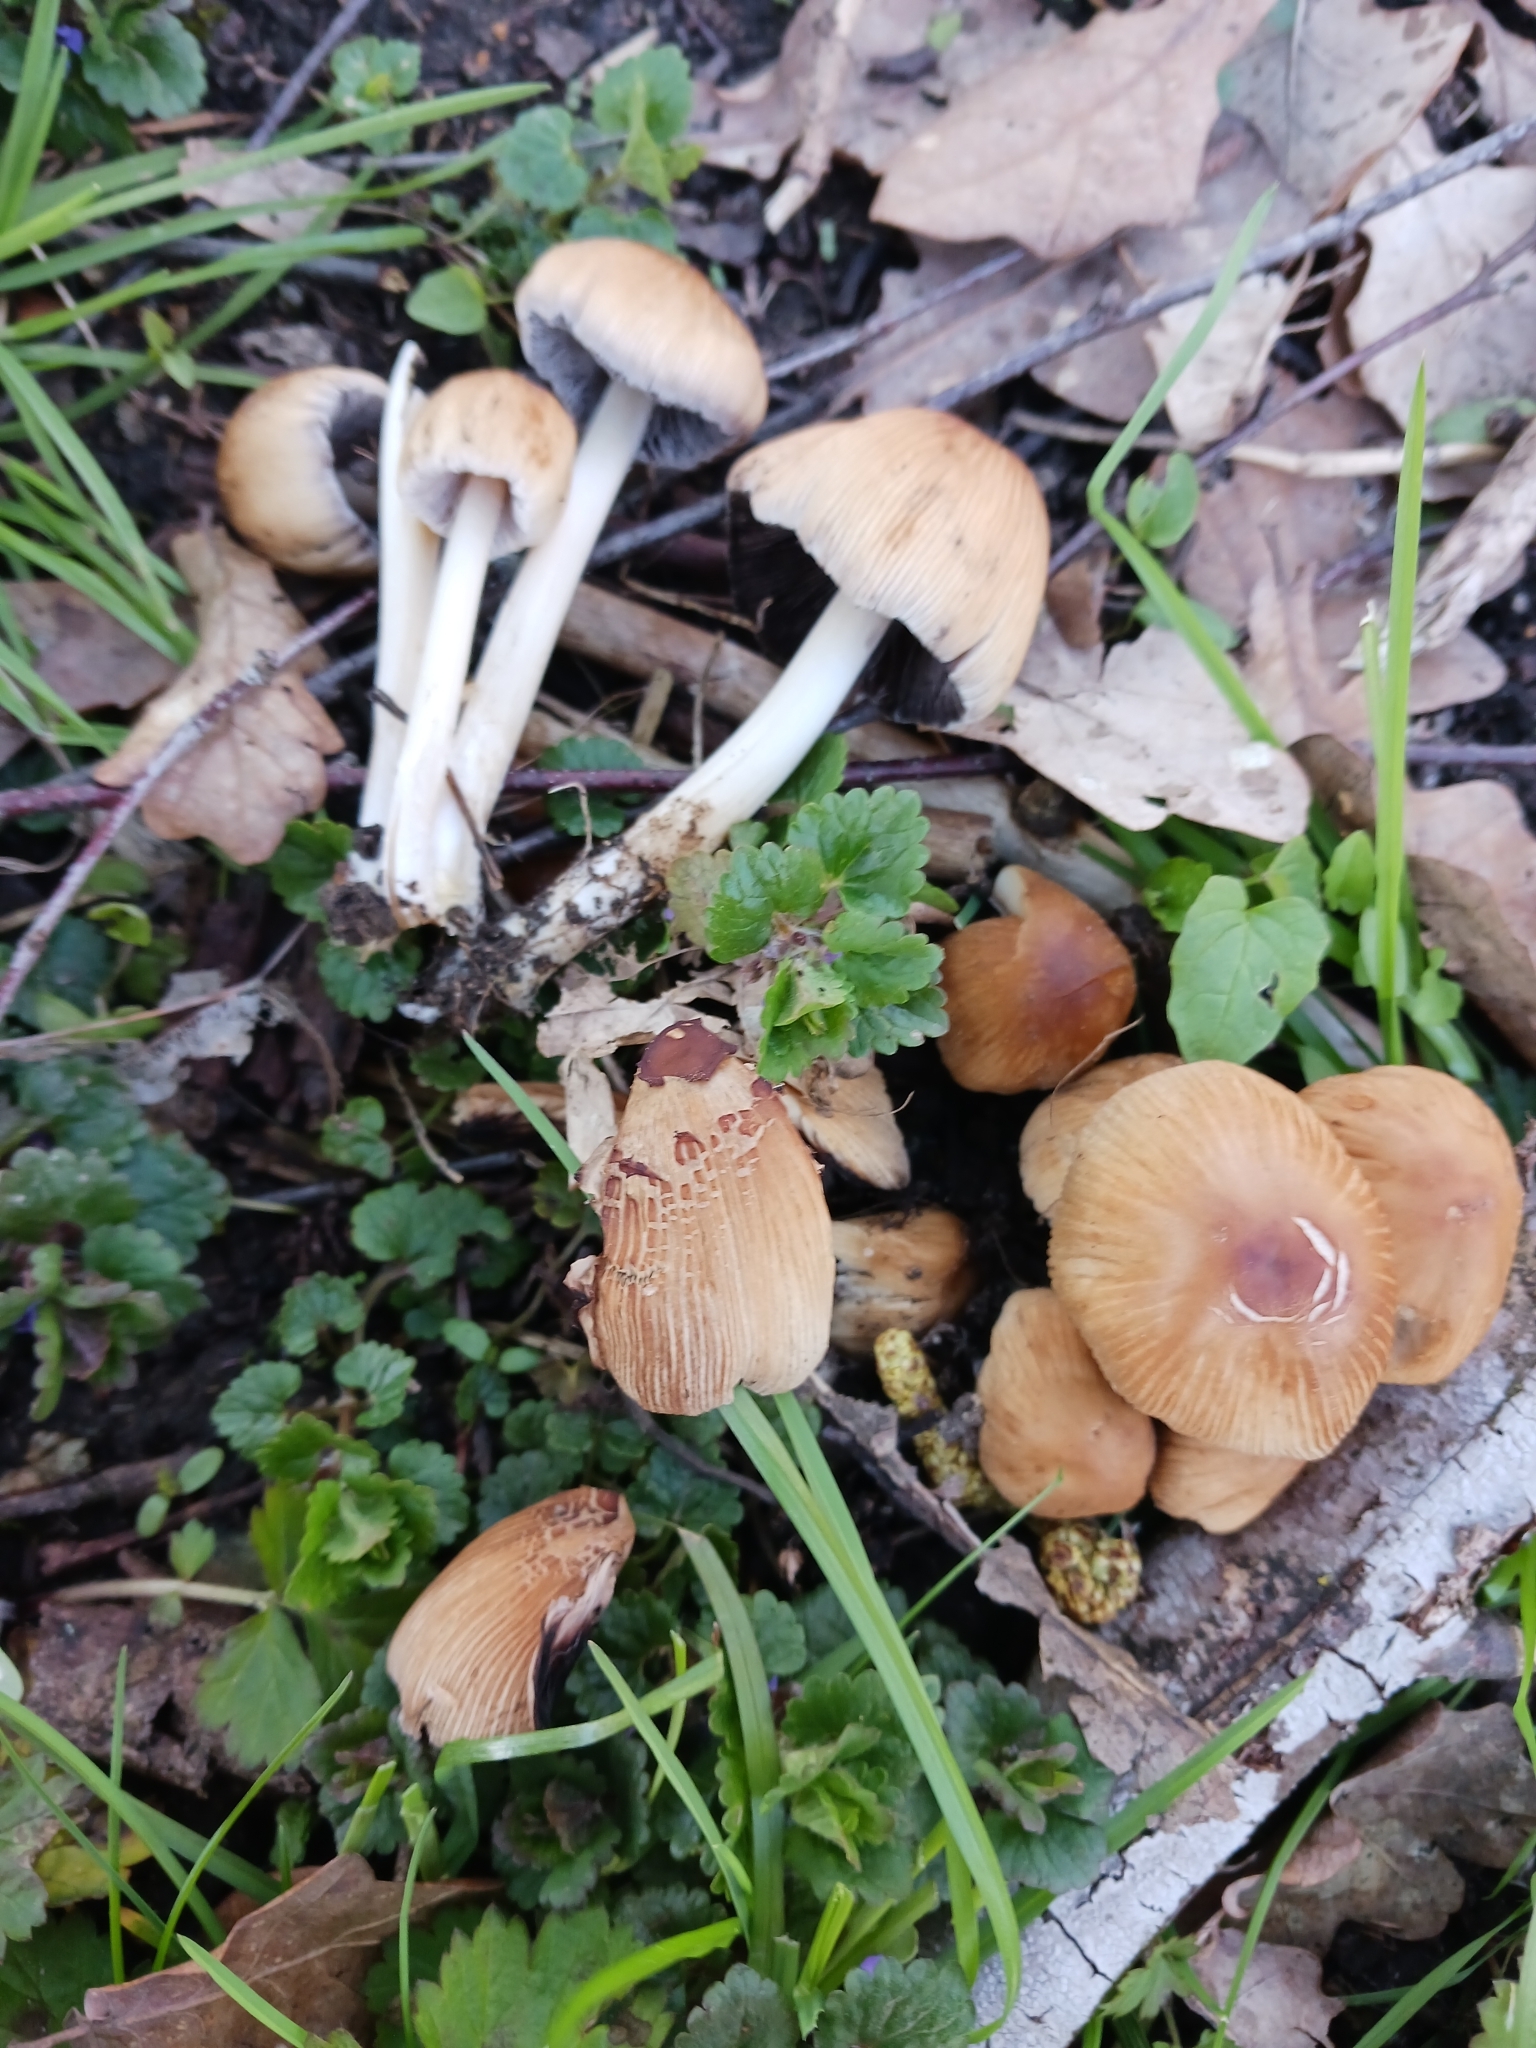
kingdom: Fungi
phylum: Basidiomycota
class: Agaricomycetes
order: Agaricales
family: Psathyrellaceae
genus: Coprinellus
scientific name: Coprinellus micaceus
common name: Glistening ink-cap
